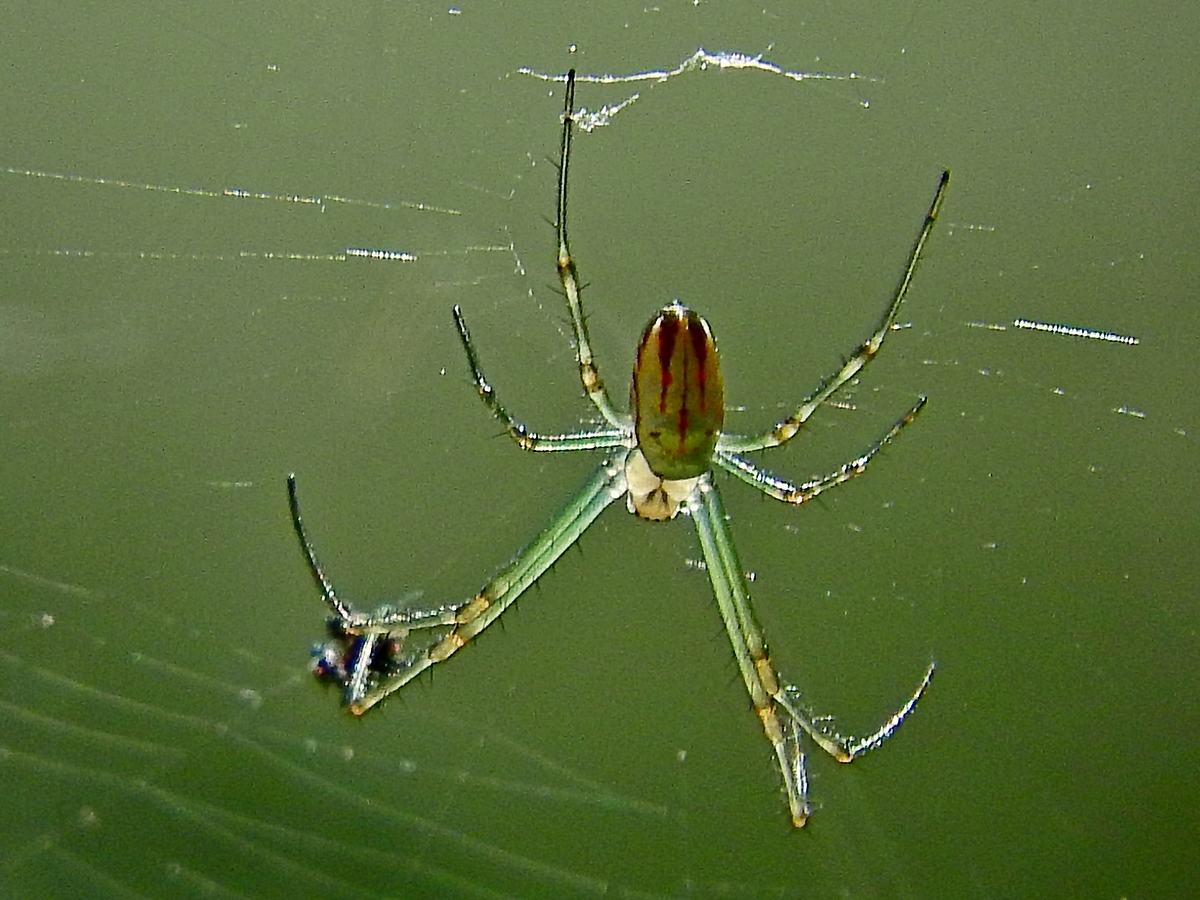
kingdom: Animalia
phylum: Arthropoda
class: Arachnida
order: Araneae
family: Tetragnathidae
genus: Leucauge
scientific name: Leucauge dromedaria
